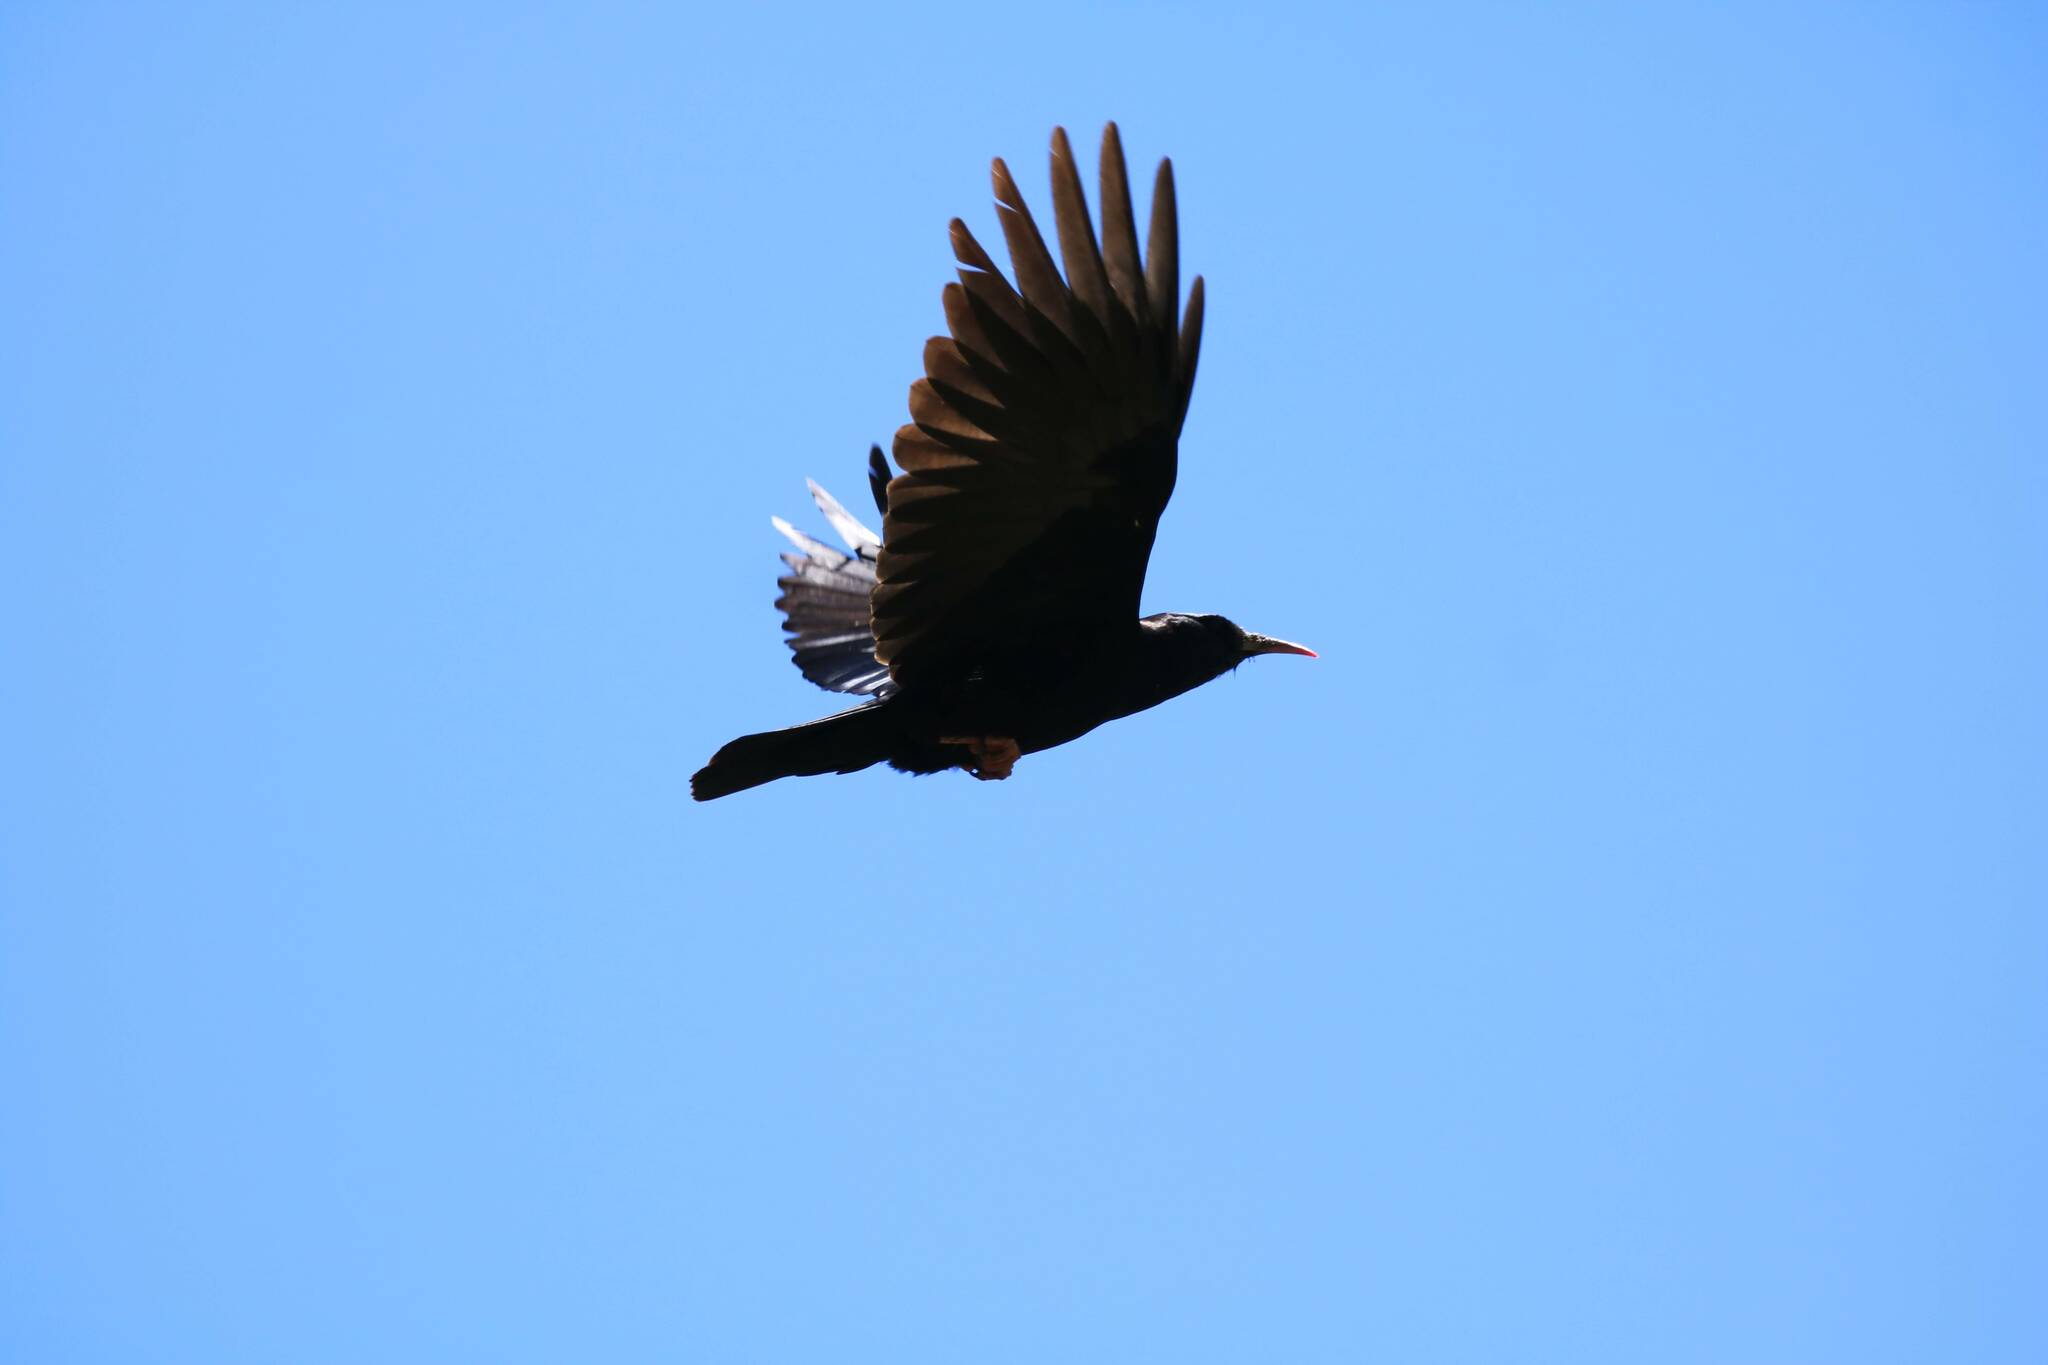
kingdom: Animalia
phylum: Chordata
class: Aves
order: Passeriformes
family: Corvidae
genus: Pyrrhocorax
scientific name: Pyrrhocorax pyrrhocorax
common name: Red-billed chough
